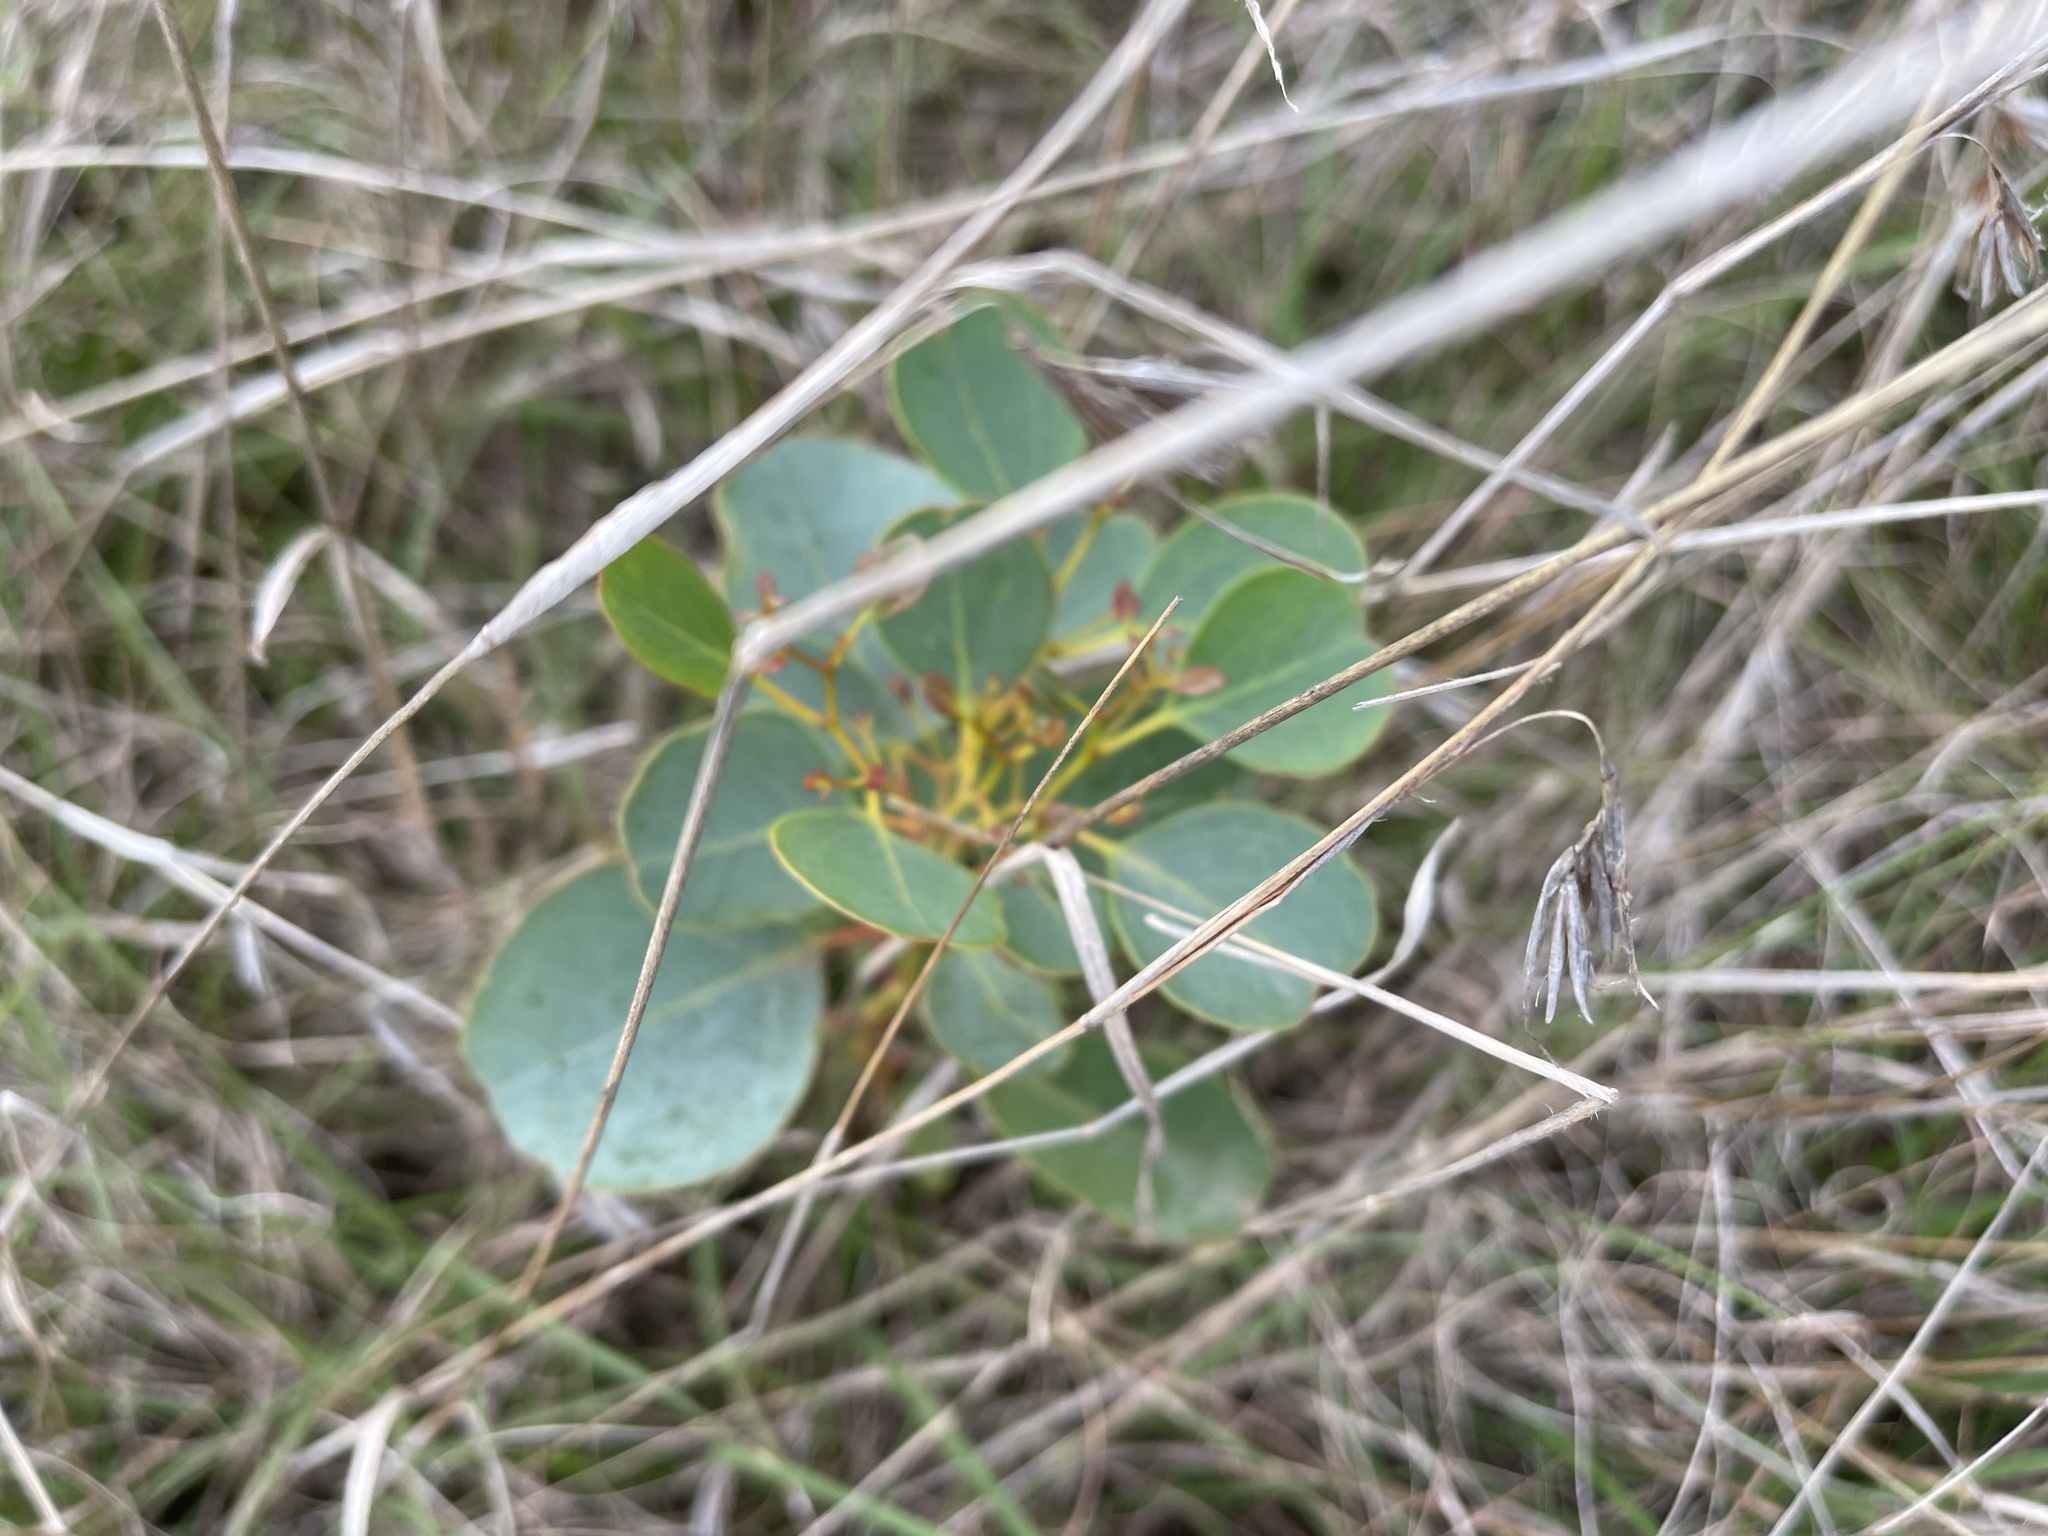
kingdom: Plantae
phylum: Tracheophyta
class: Magnoliopsida
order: Myrtales
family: Myrtaceae
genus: Eucalyptus
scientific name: Eucalyptus cladocalyx
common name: Sugargum
